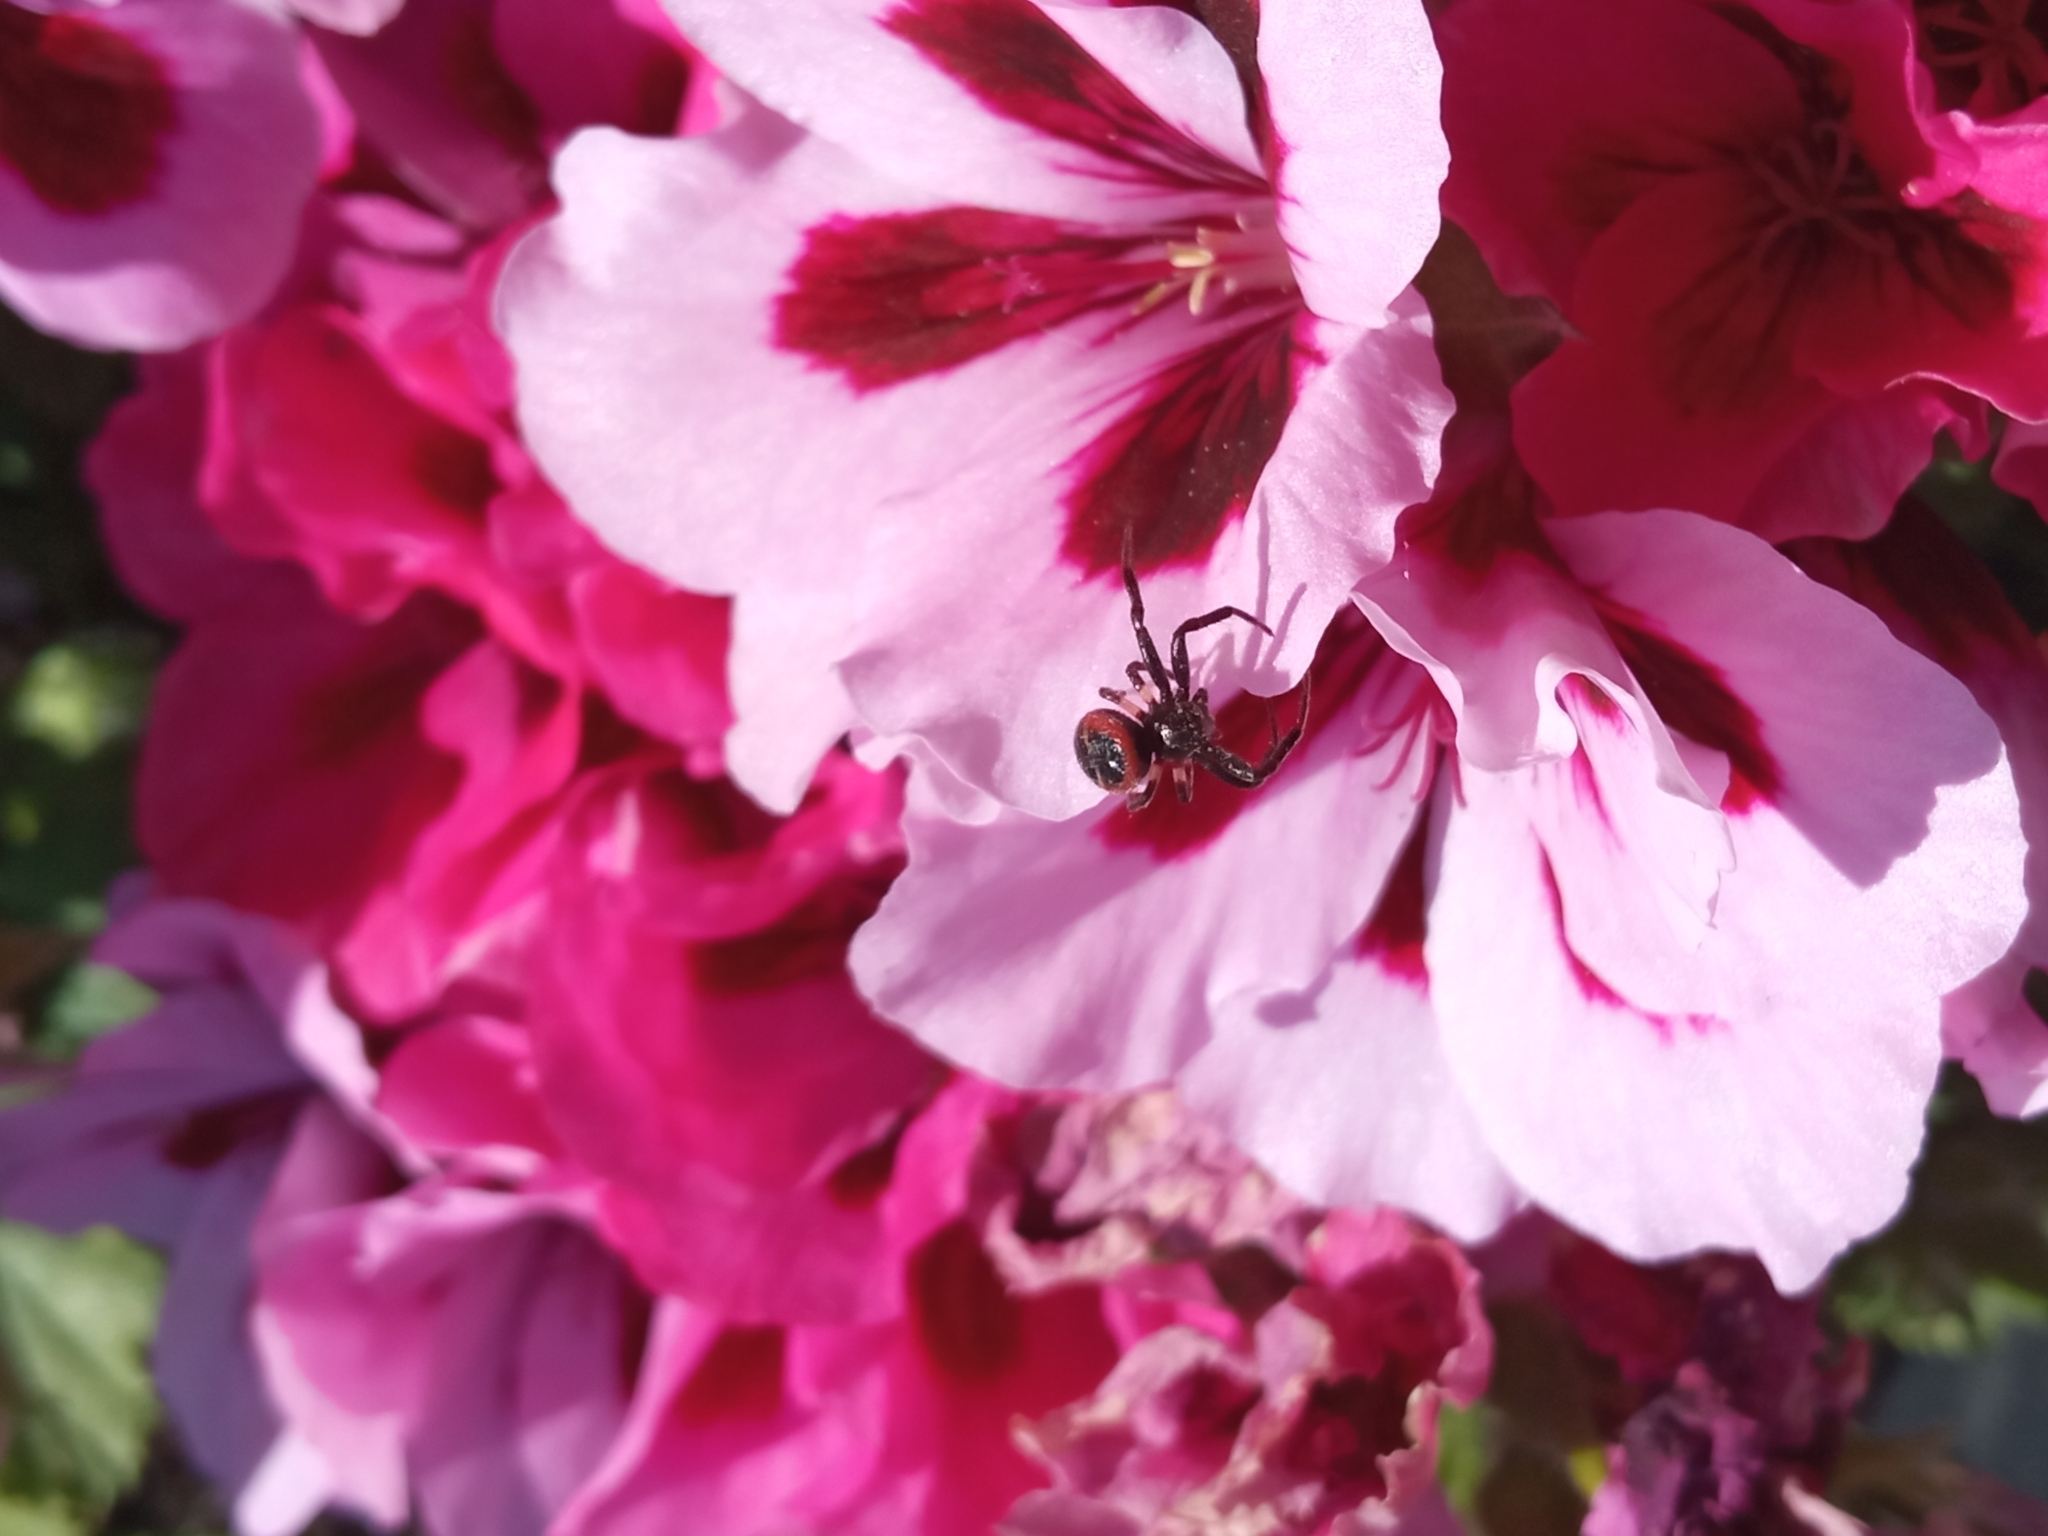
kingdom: Animalia
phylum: Arthropoda
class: Arachnida
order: Araneae
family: Thomisidae
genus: Synema
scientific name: Synema globosum
